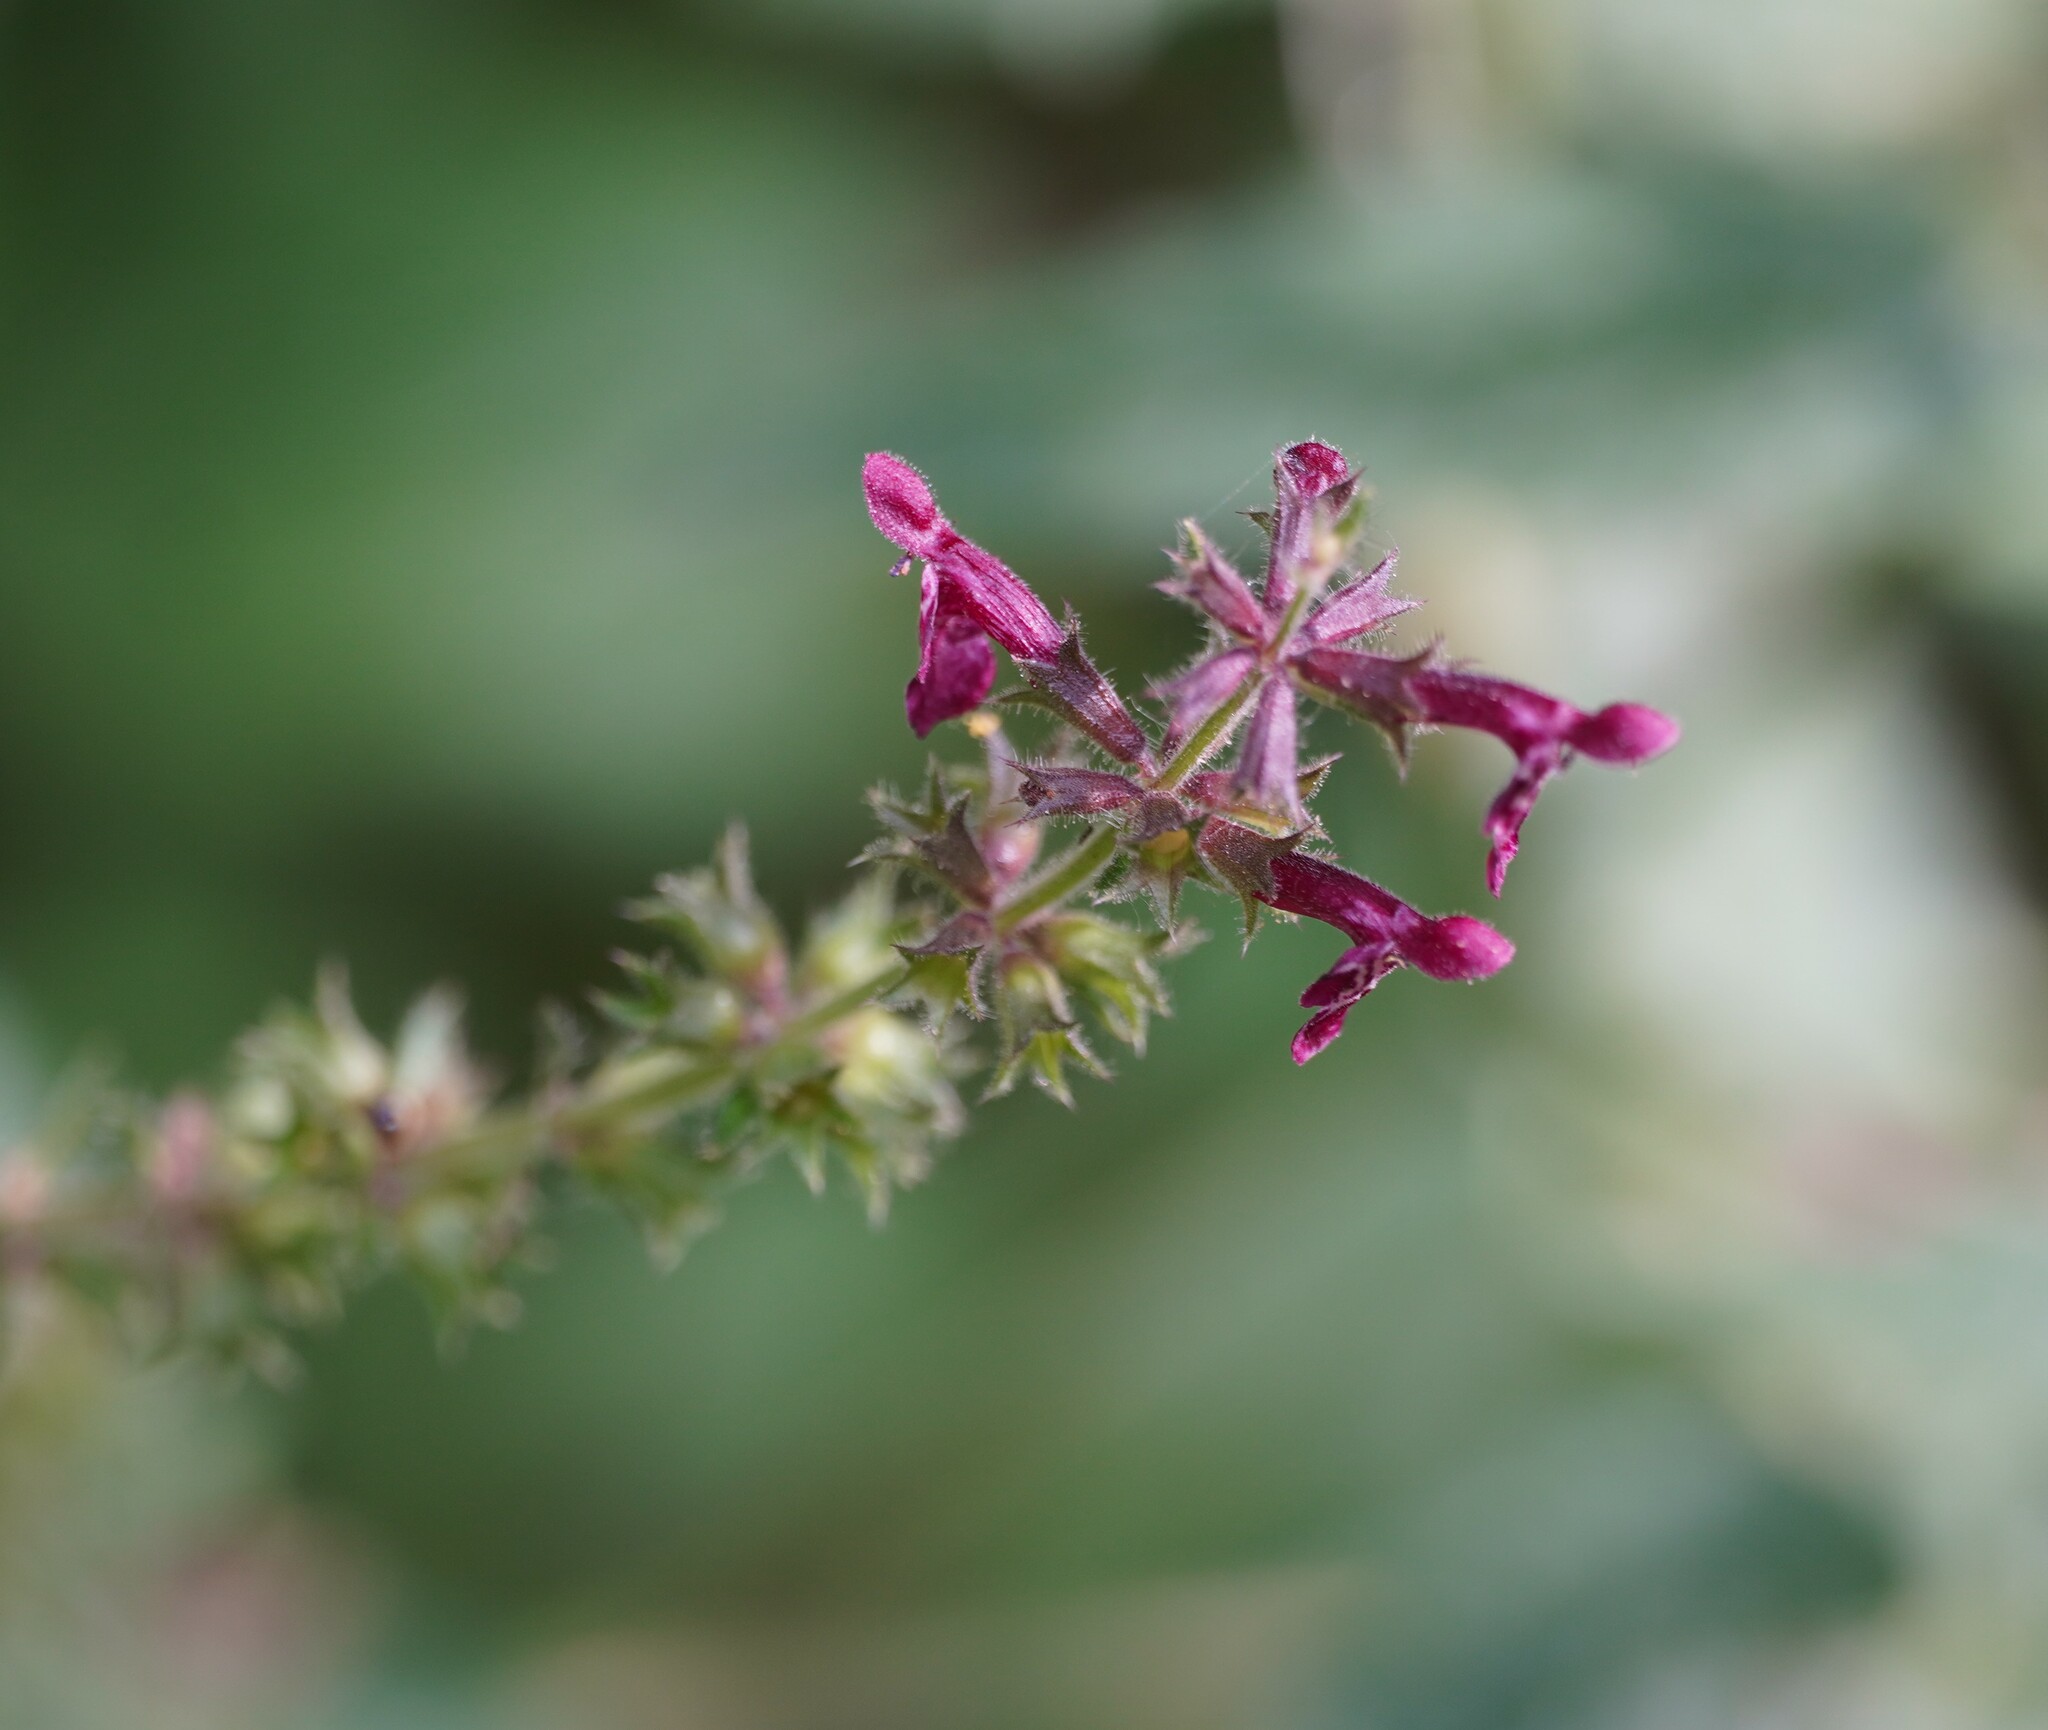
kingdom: Plantae
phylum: Tracheophyta
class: Magnoliopsida
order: Lamiales
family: Lamiaceae
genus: Stachys
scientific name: Stachys sylvatica
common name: Hedge woundwort
